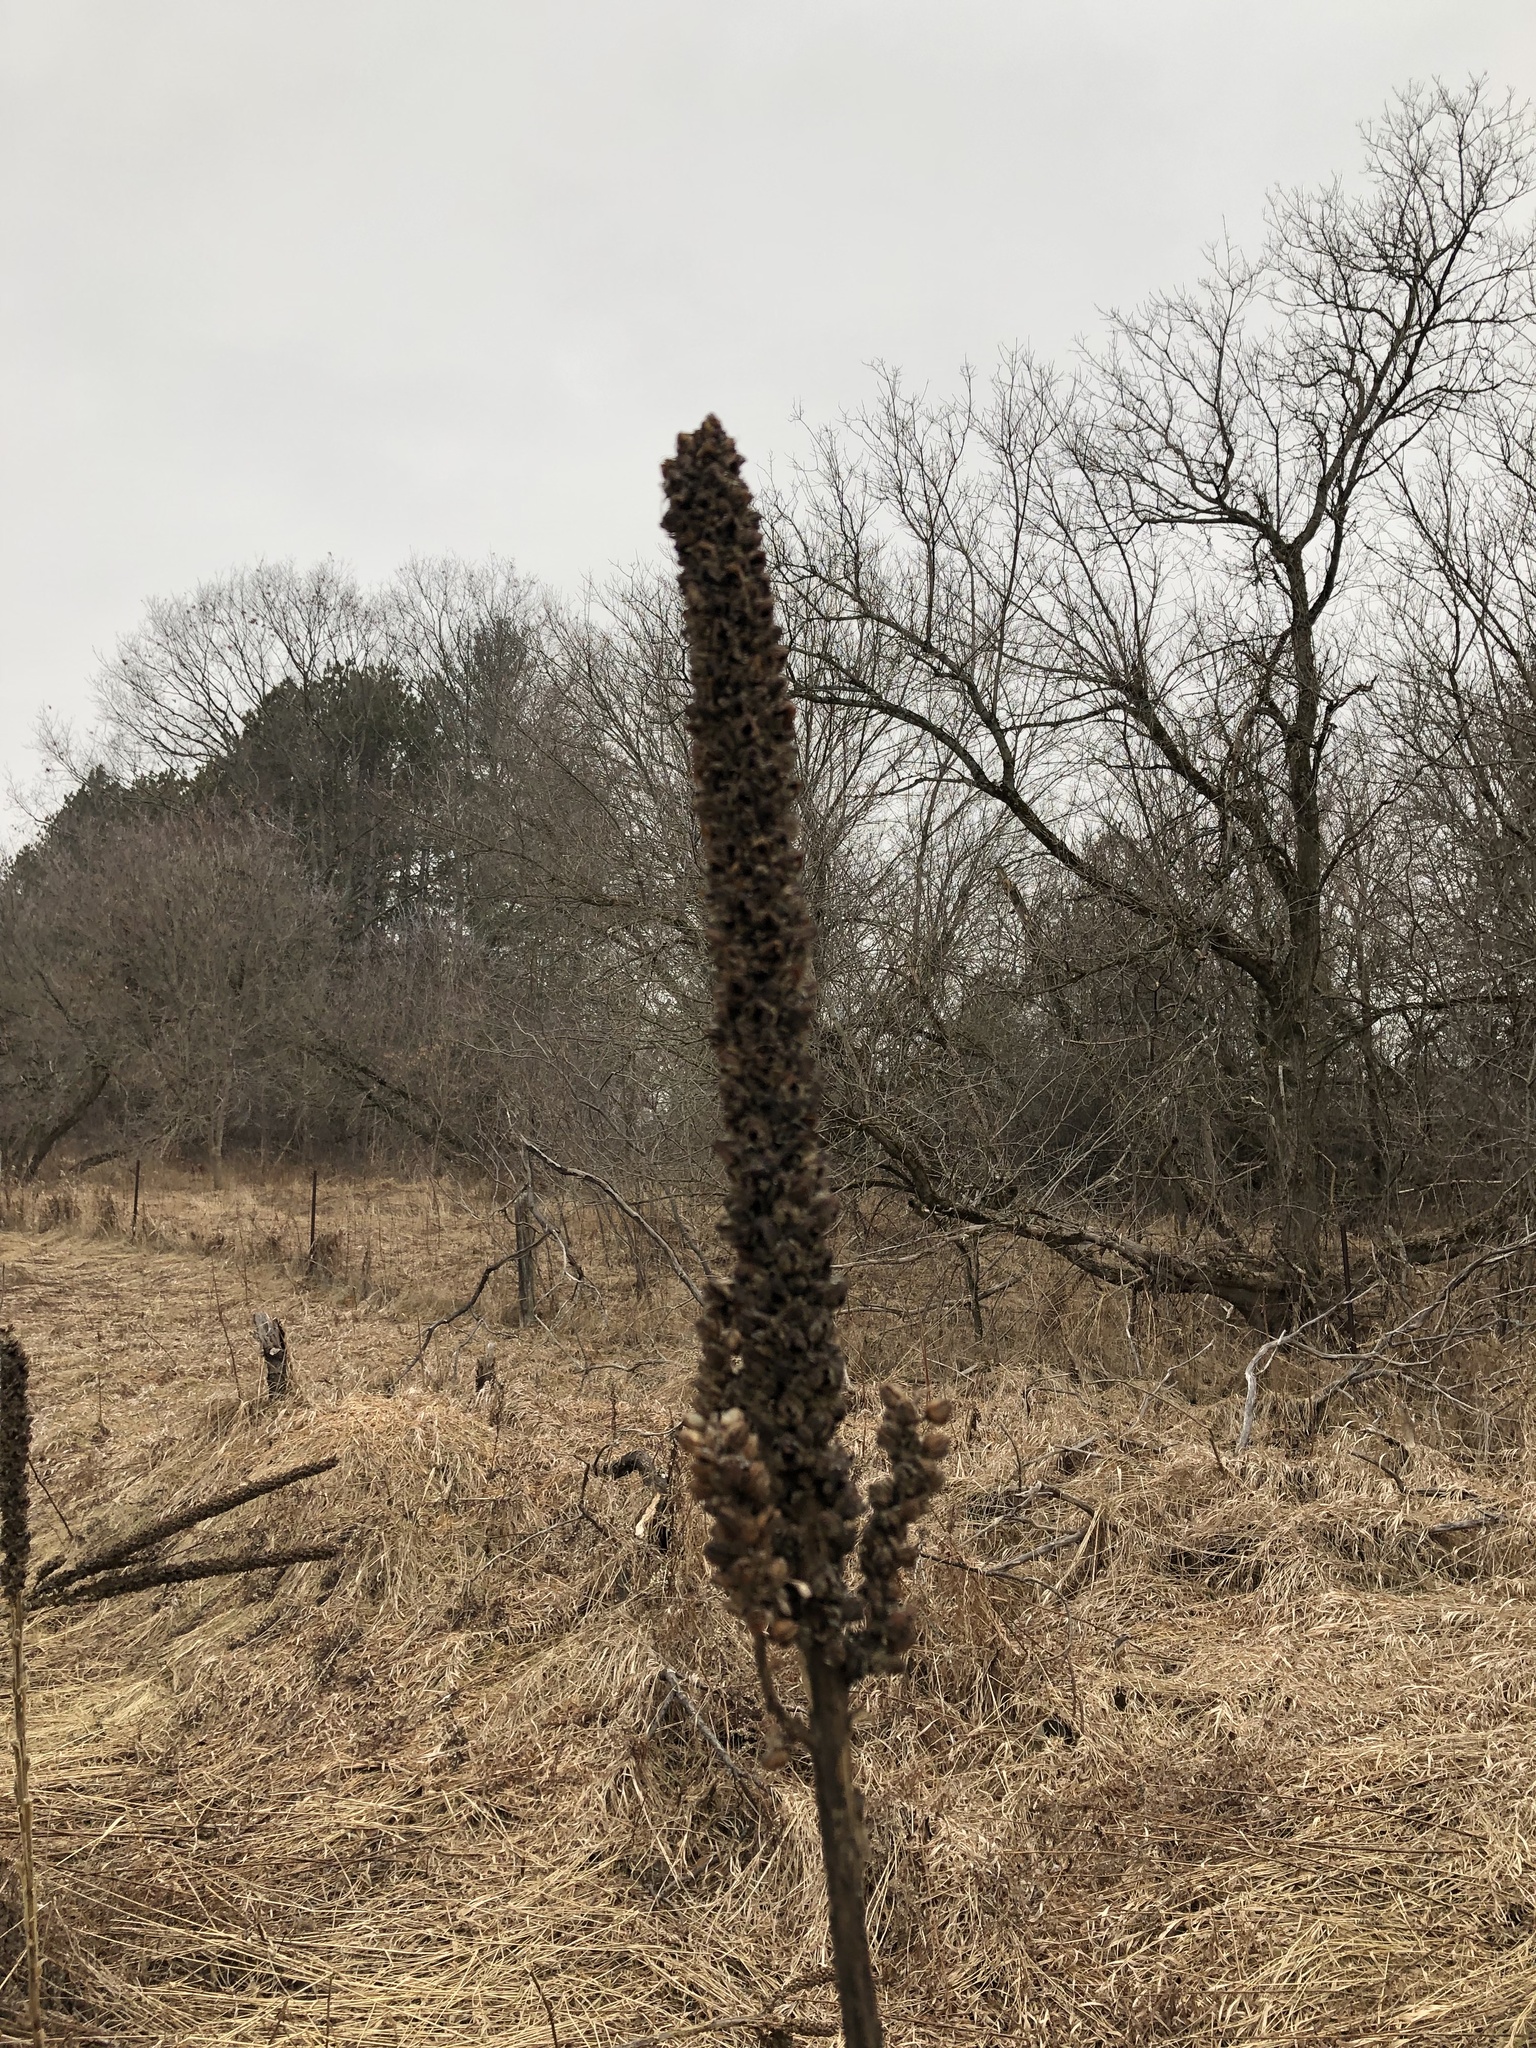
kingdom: Plantae
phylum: Tracheophyta
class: Magnoliopsida
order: Lamiales
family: Scrophulariaceae
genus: Verbascum
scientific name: Verbascum thapsus
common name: Common mullein
